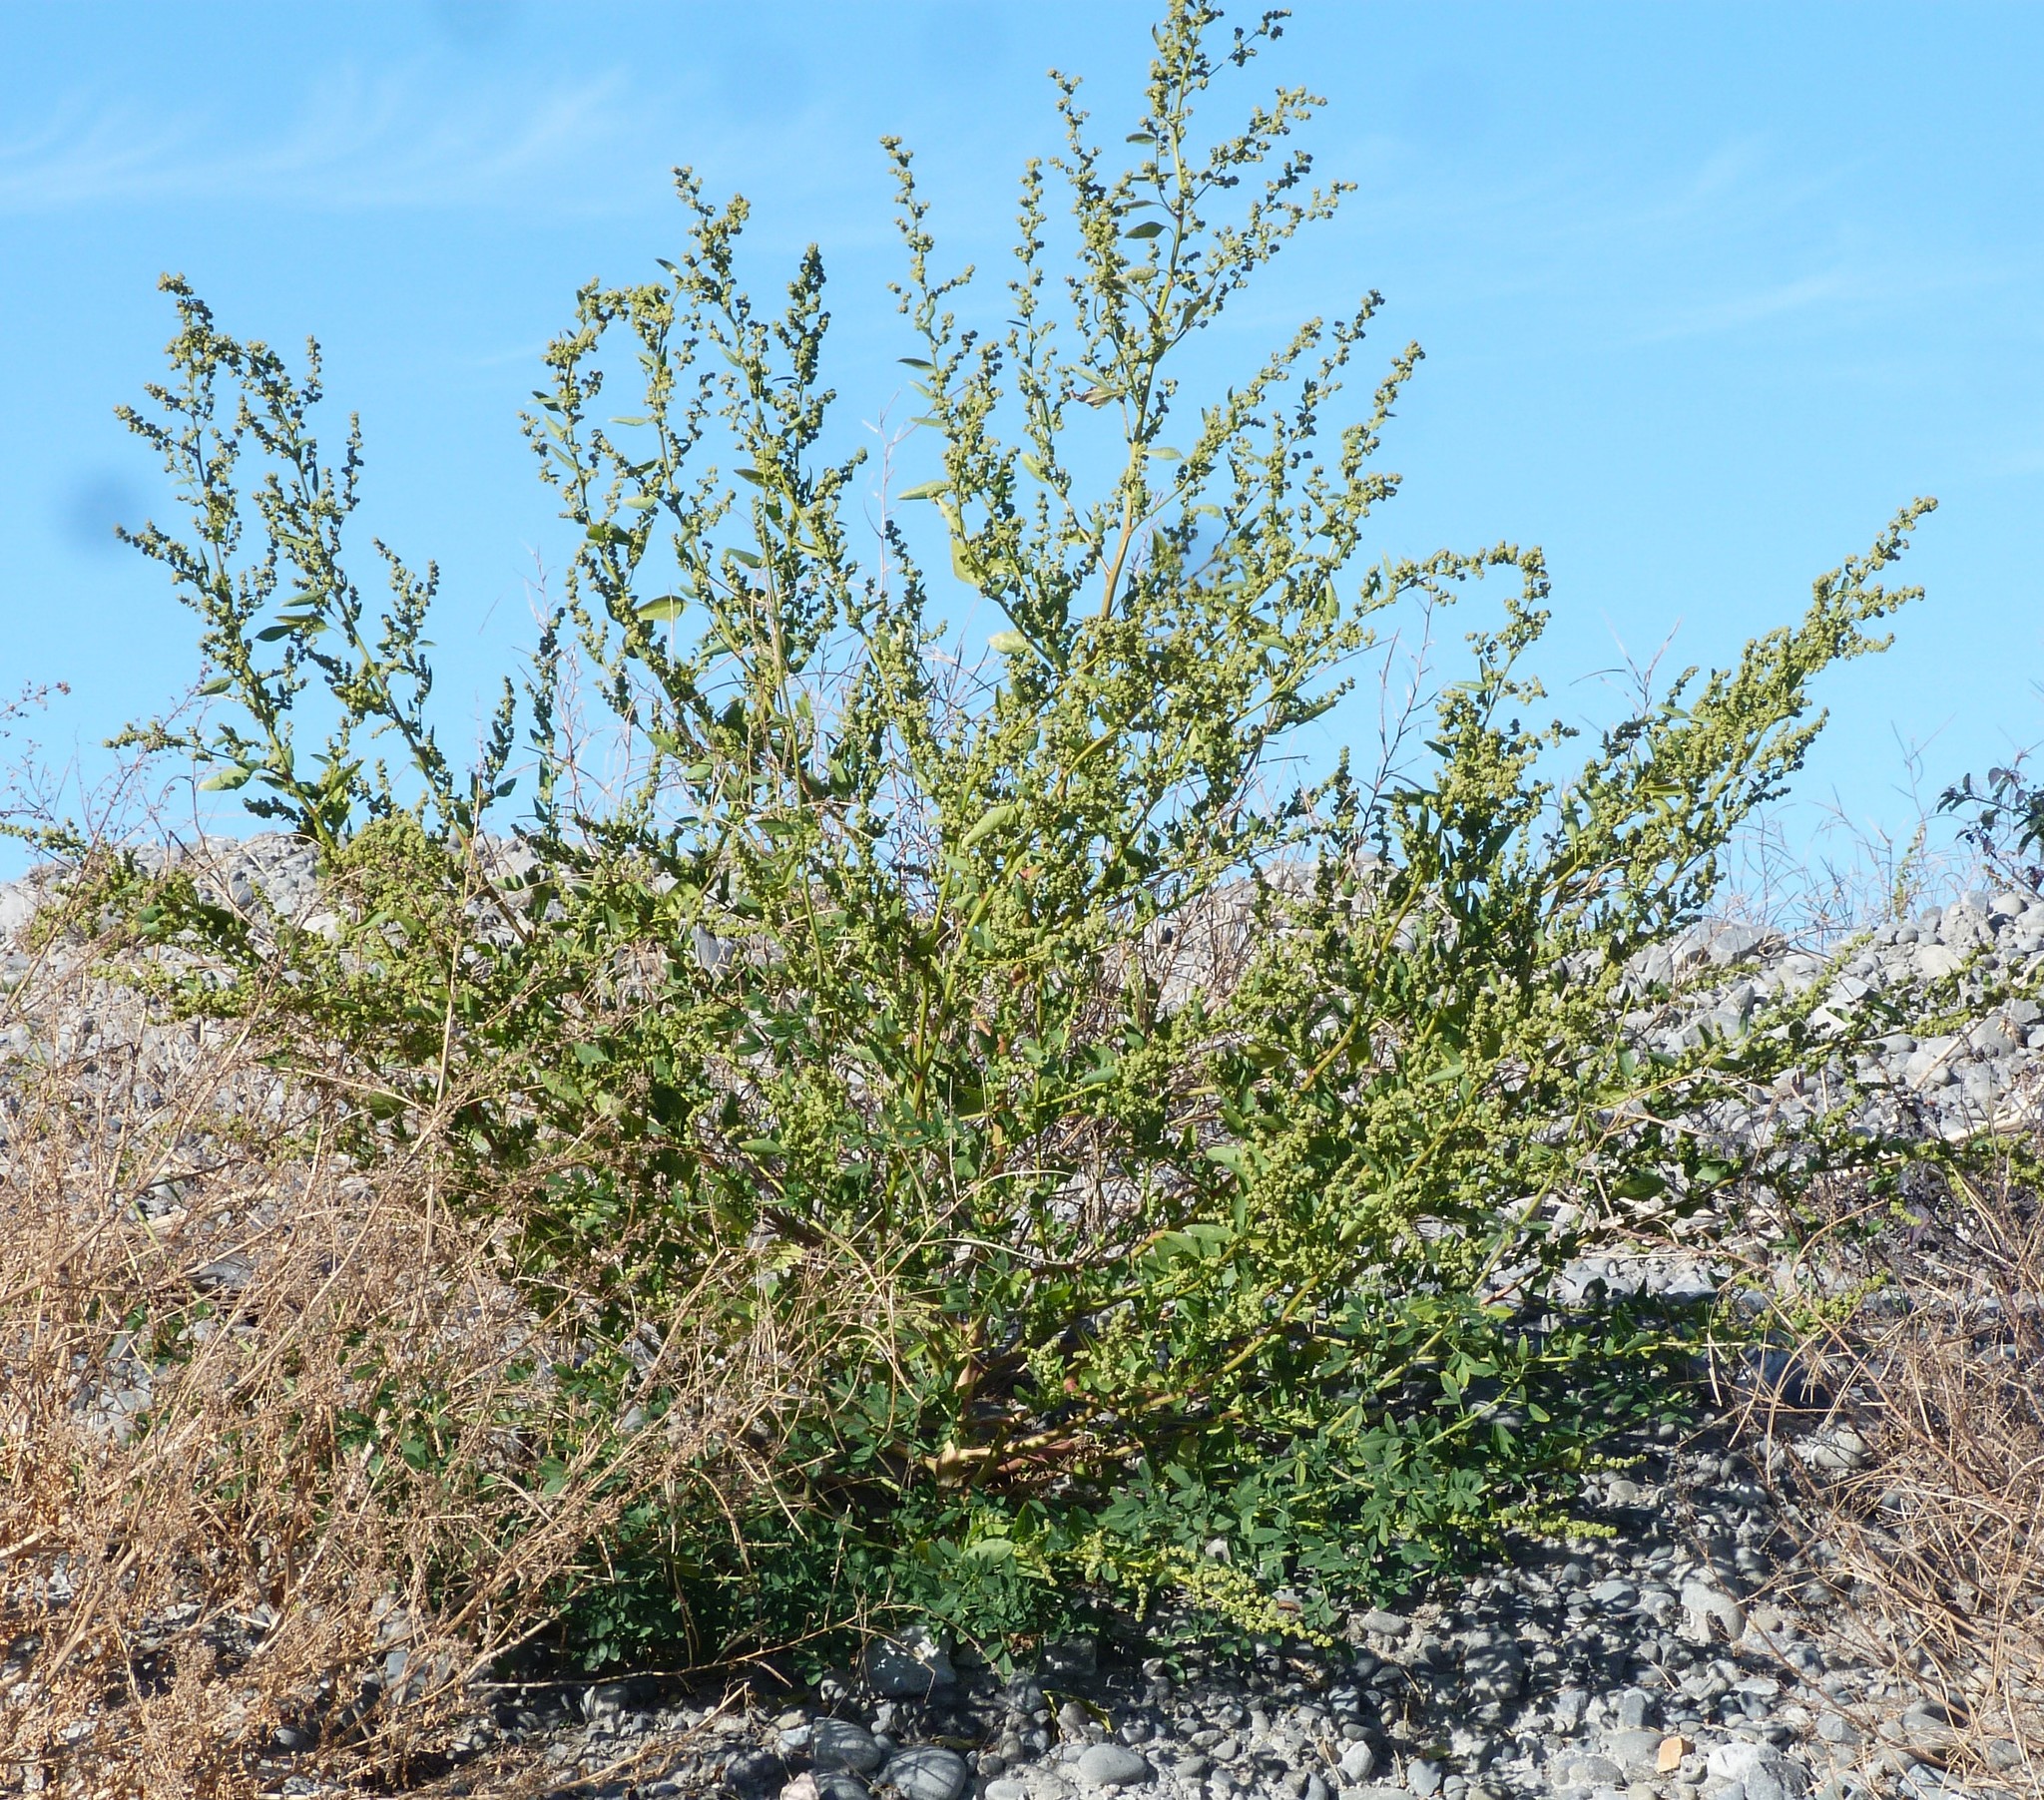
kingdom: Plantae
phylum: Tracheophyta
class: Magnoliopsida
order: Caryophyllales
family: Amaranthaceae
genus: Chenopodium
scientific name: Chenopodium album
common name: Fat-hen
